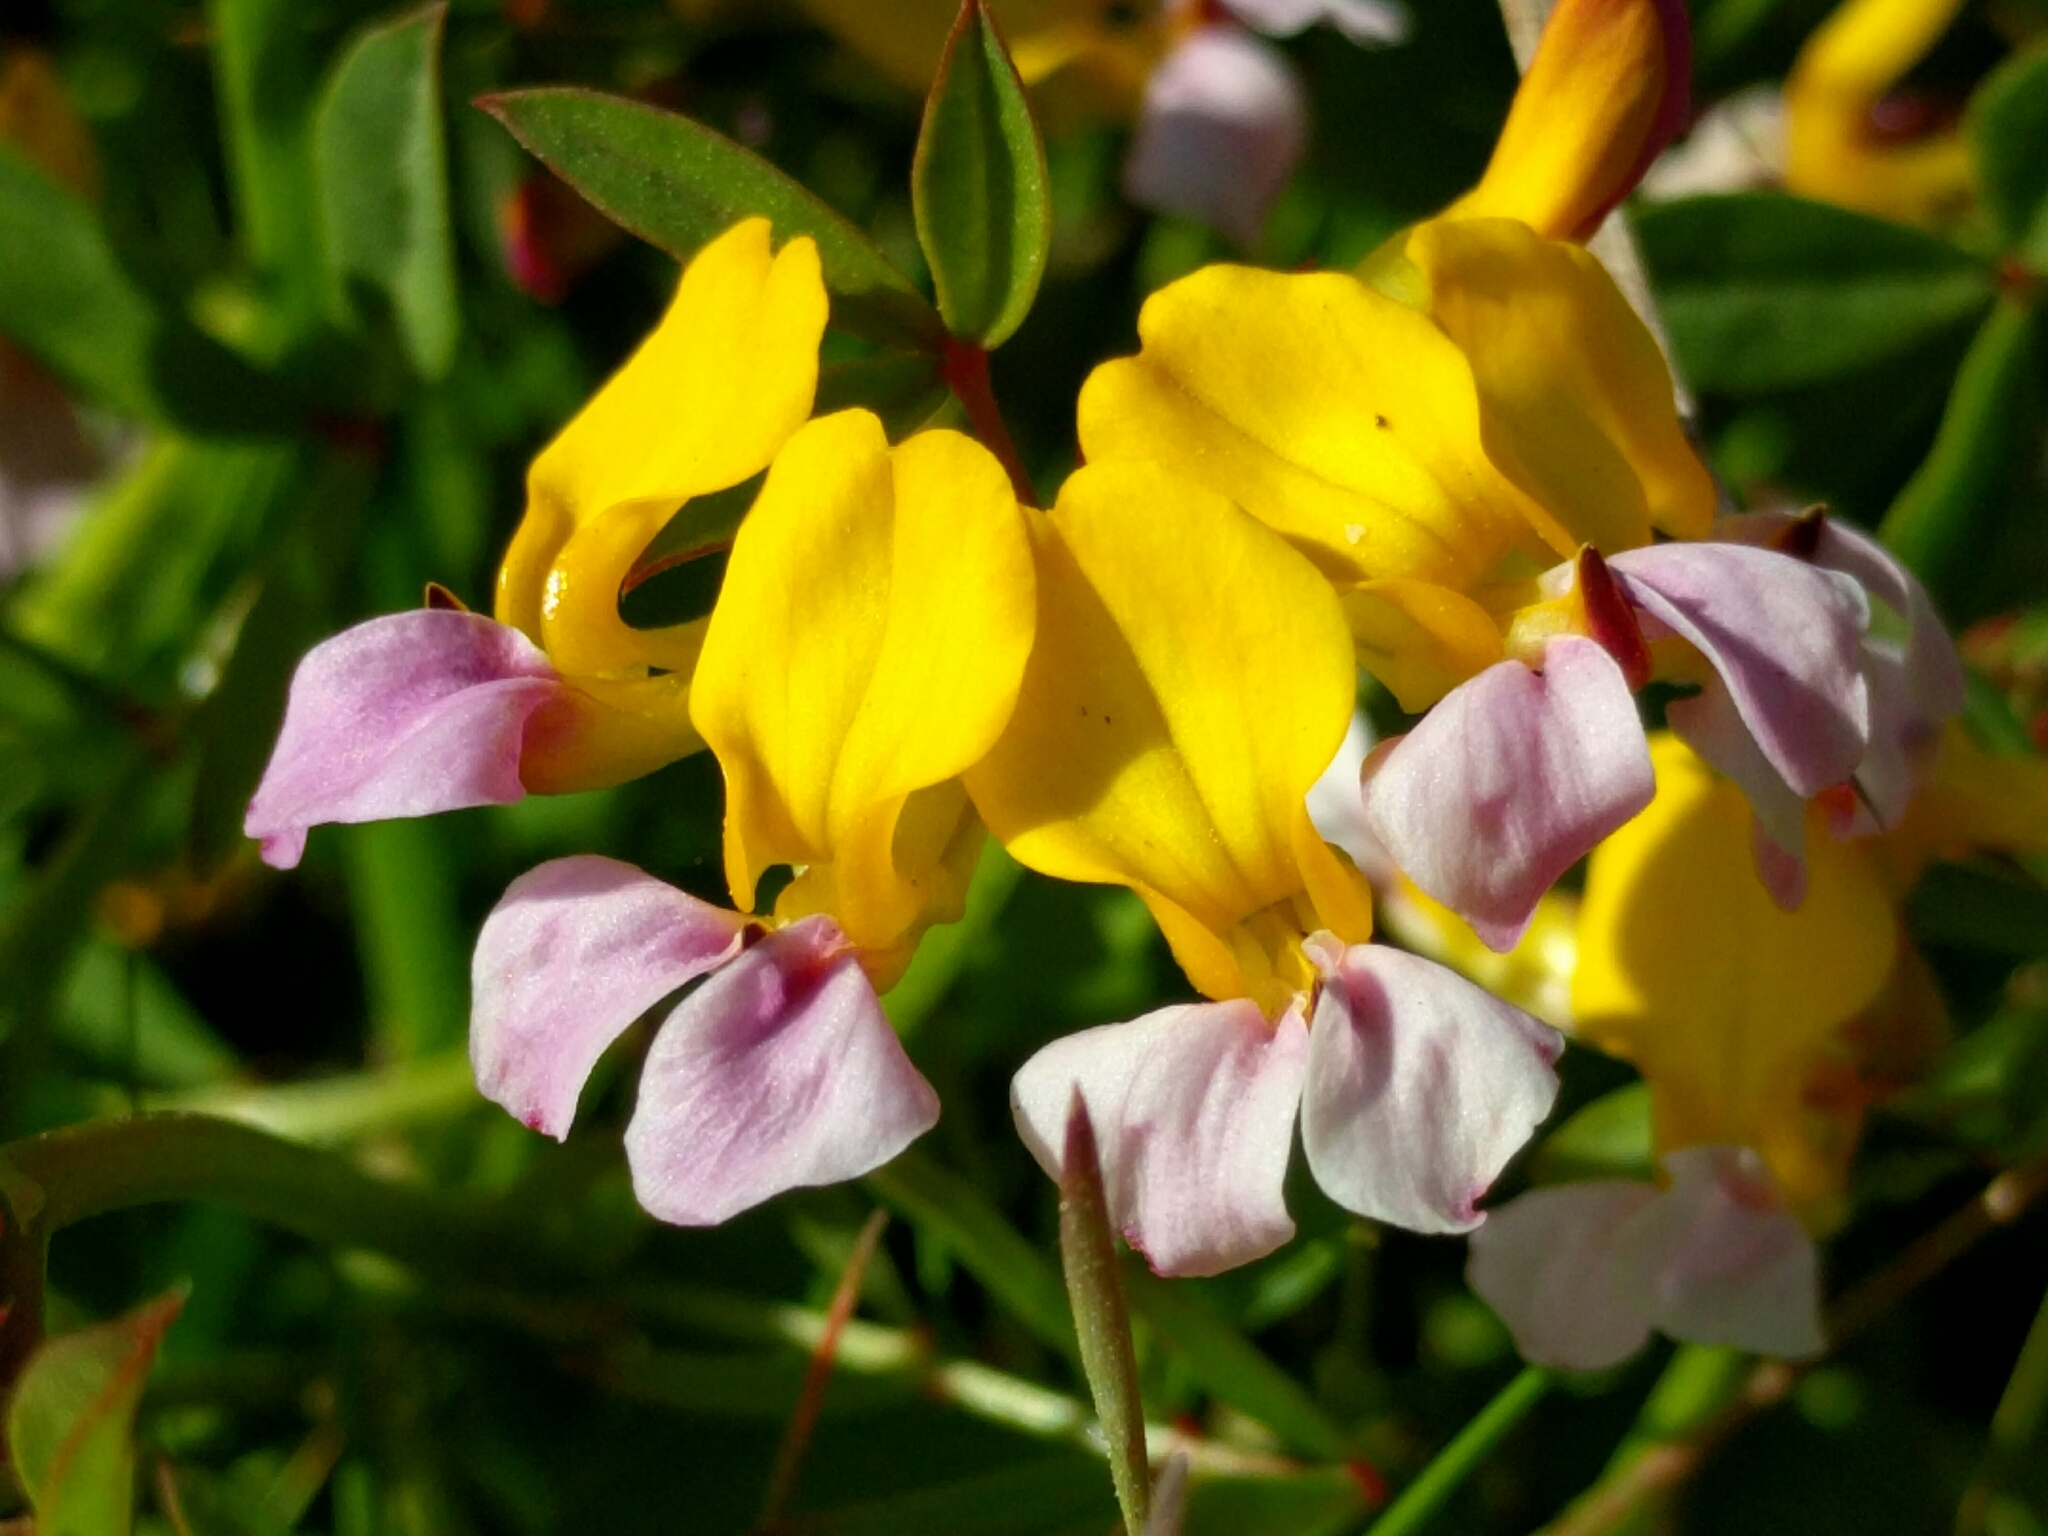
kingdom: Plantae
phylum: Tracheophyta
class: Magnoliopsida
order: Fabales
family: Fabaceae
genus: Hosackia
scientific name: Hosackia gracilis
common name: Seaside bird's-foot lotus
